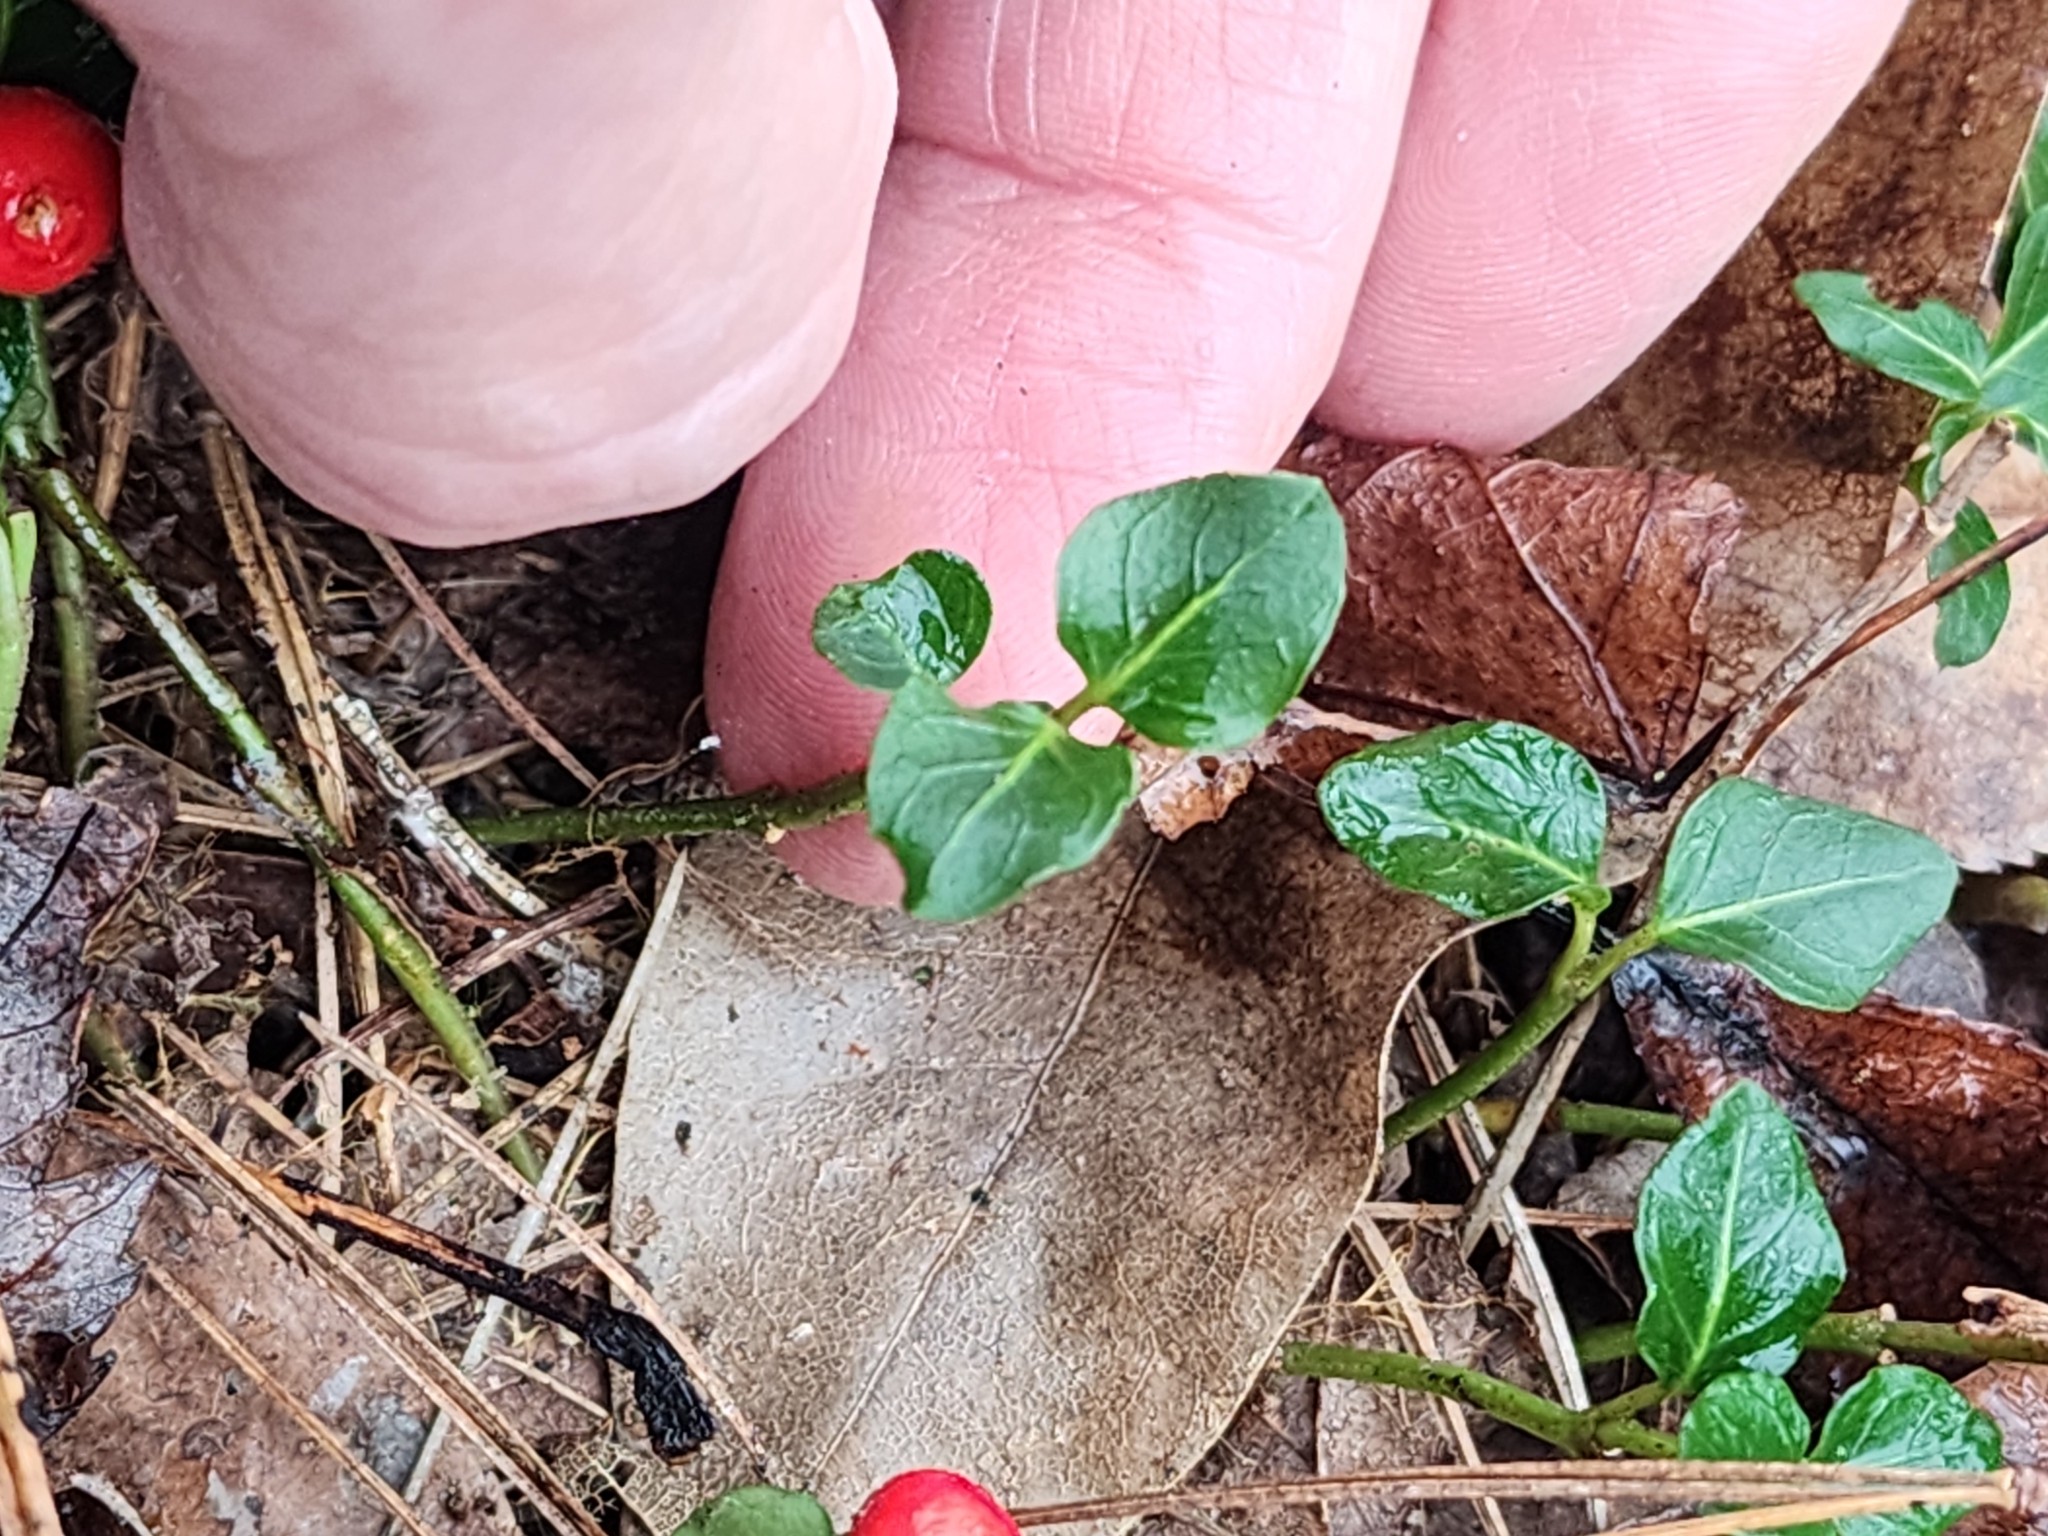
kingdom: Plantae
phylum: Tracheophyta
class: Magnoliopsida
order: Gentianales
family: Rubiaceae
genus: Mitchella
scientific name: Mitchella repens
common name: Partridge-berry
